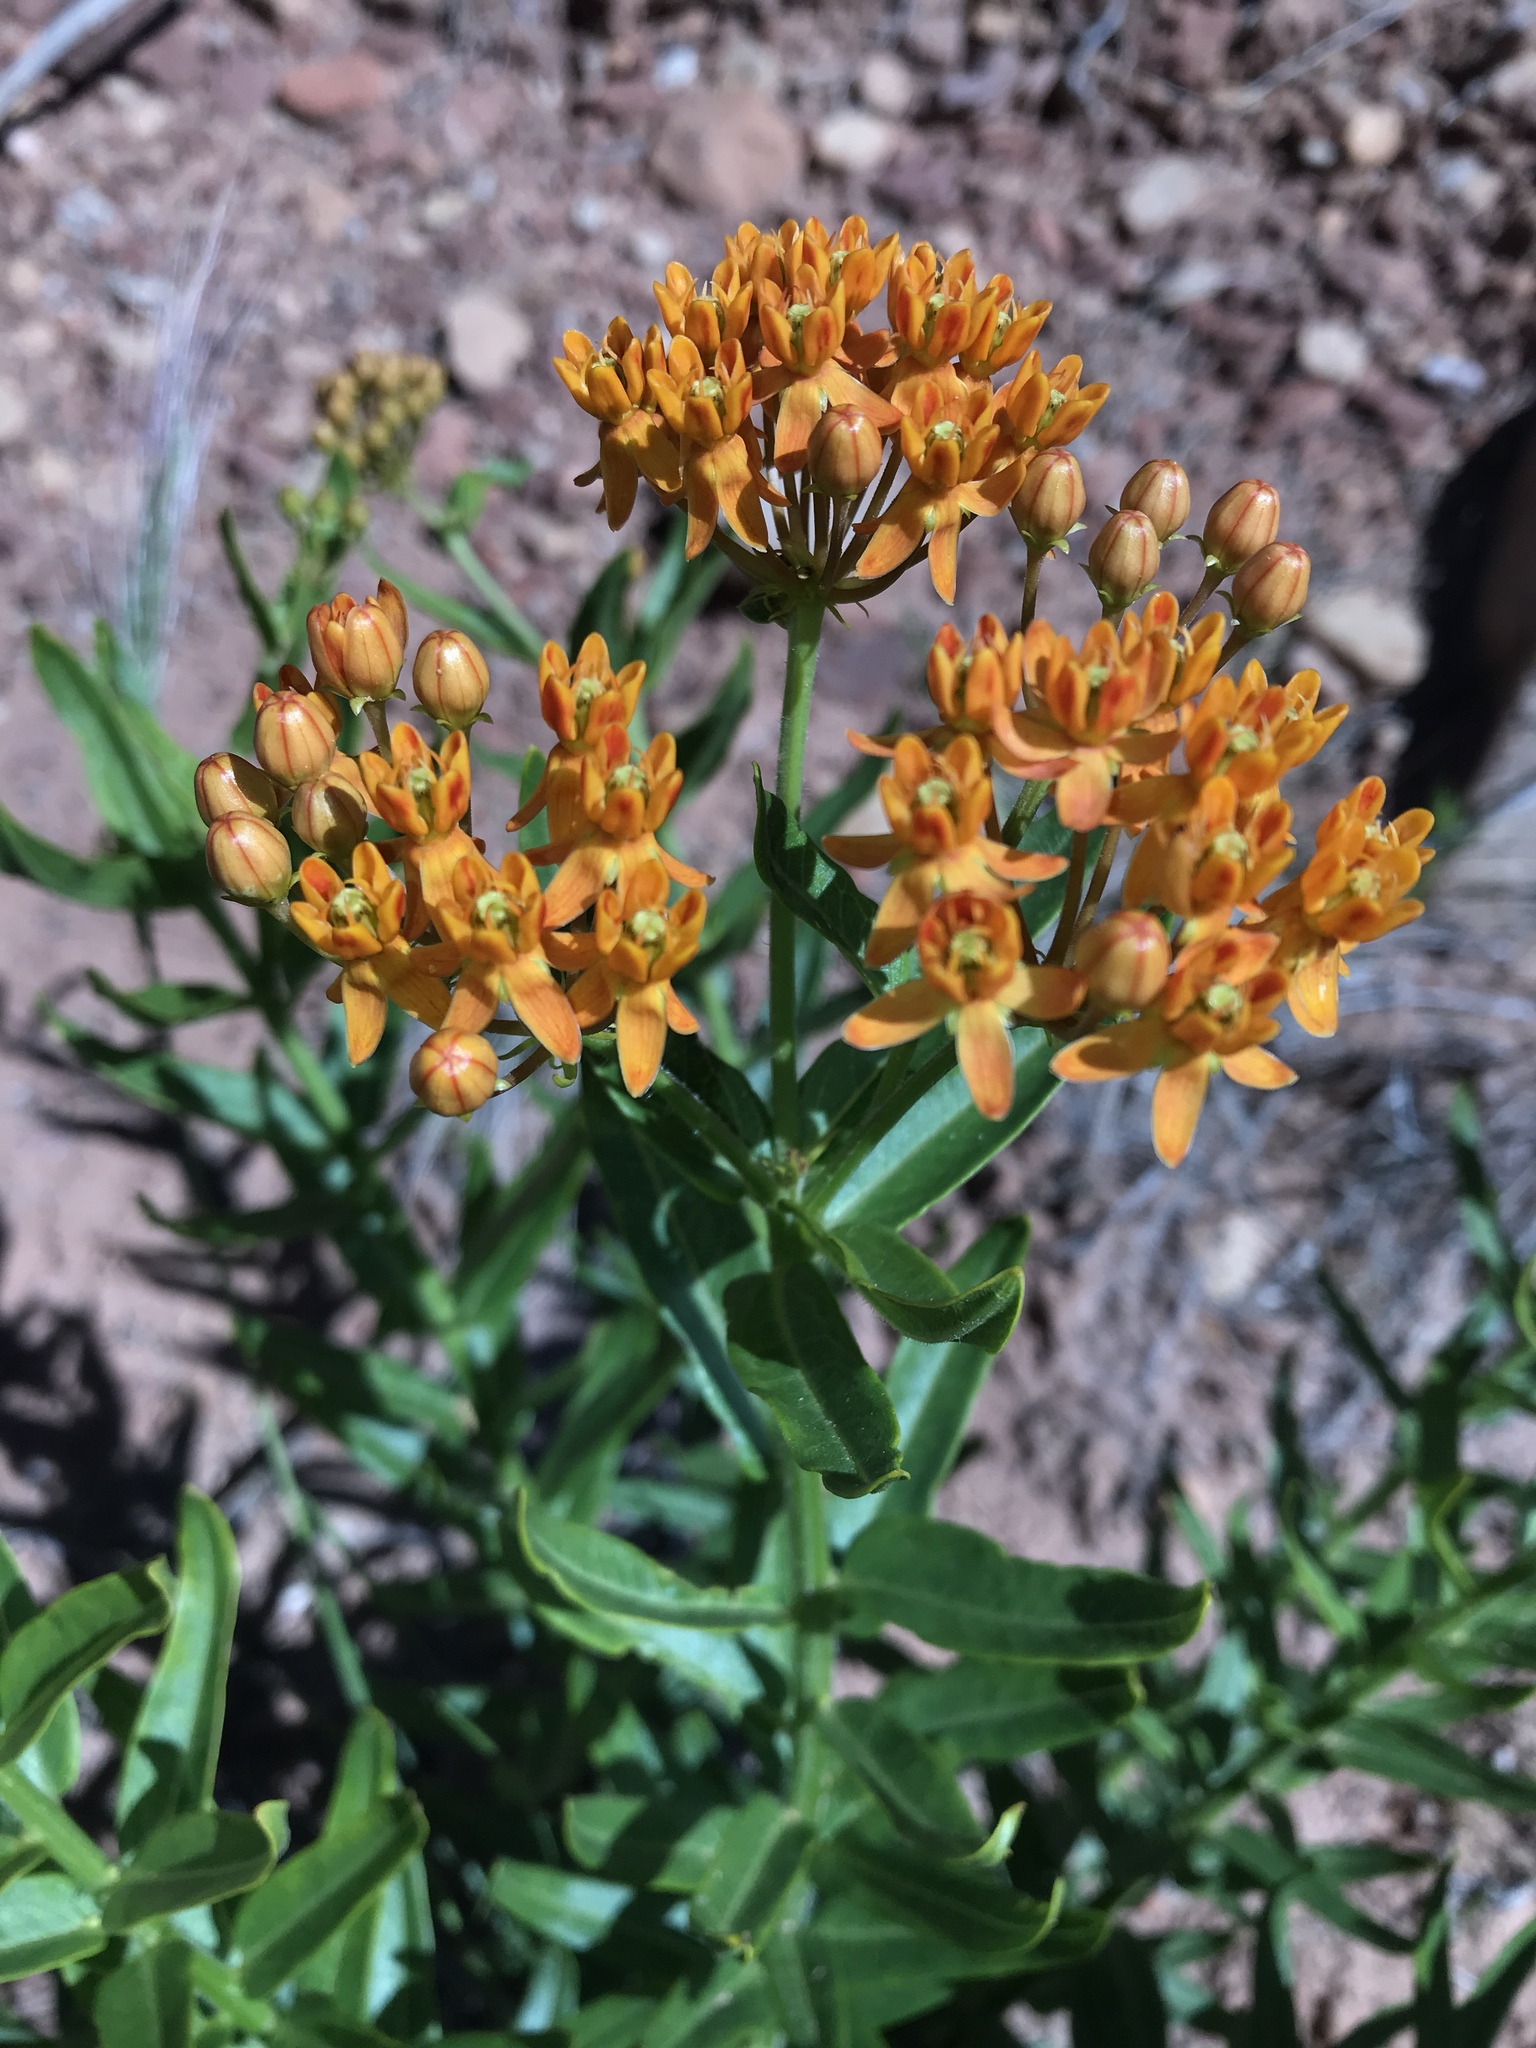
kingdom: Plantae
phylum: Tracheophyta
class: Magnoliopsida
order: Gentianales
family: Apocynaceae
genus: Asclepias
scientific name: Asclepias tuberosa
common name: Butterfly milkweed
